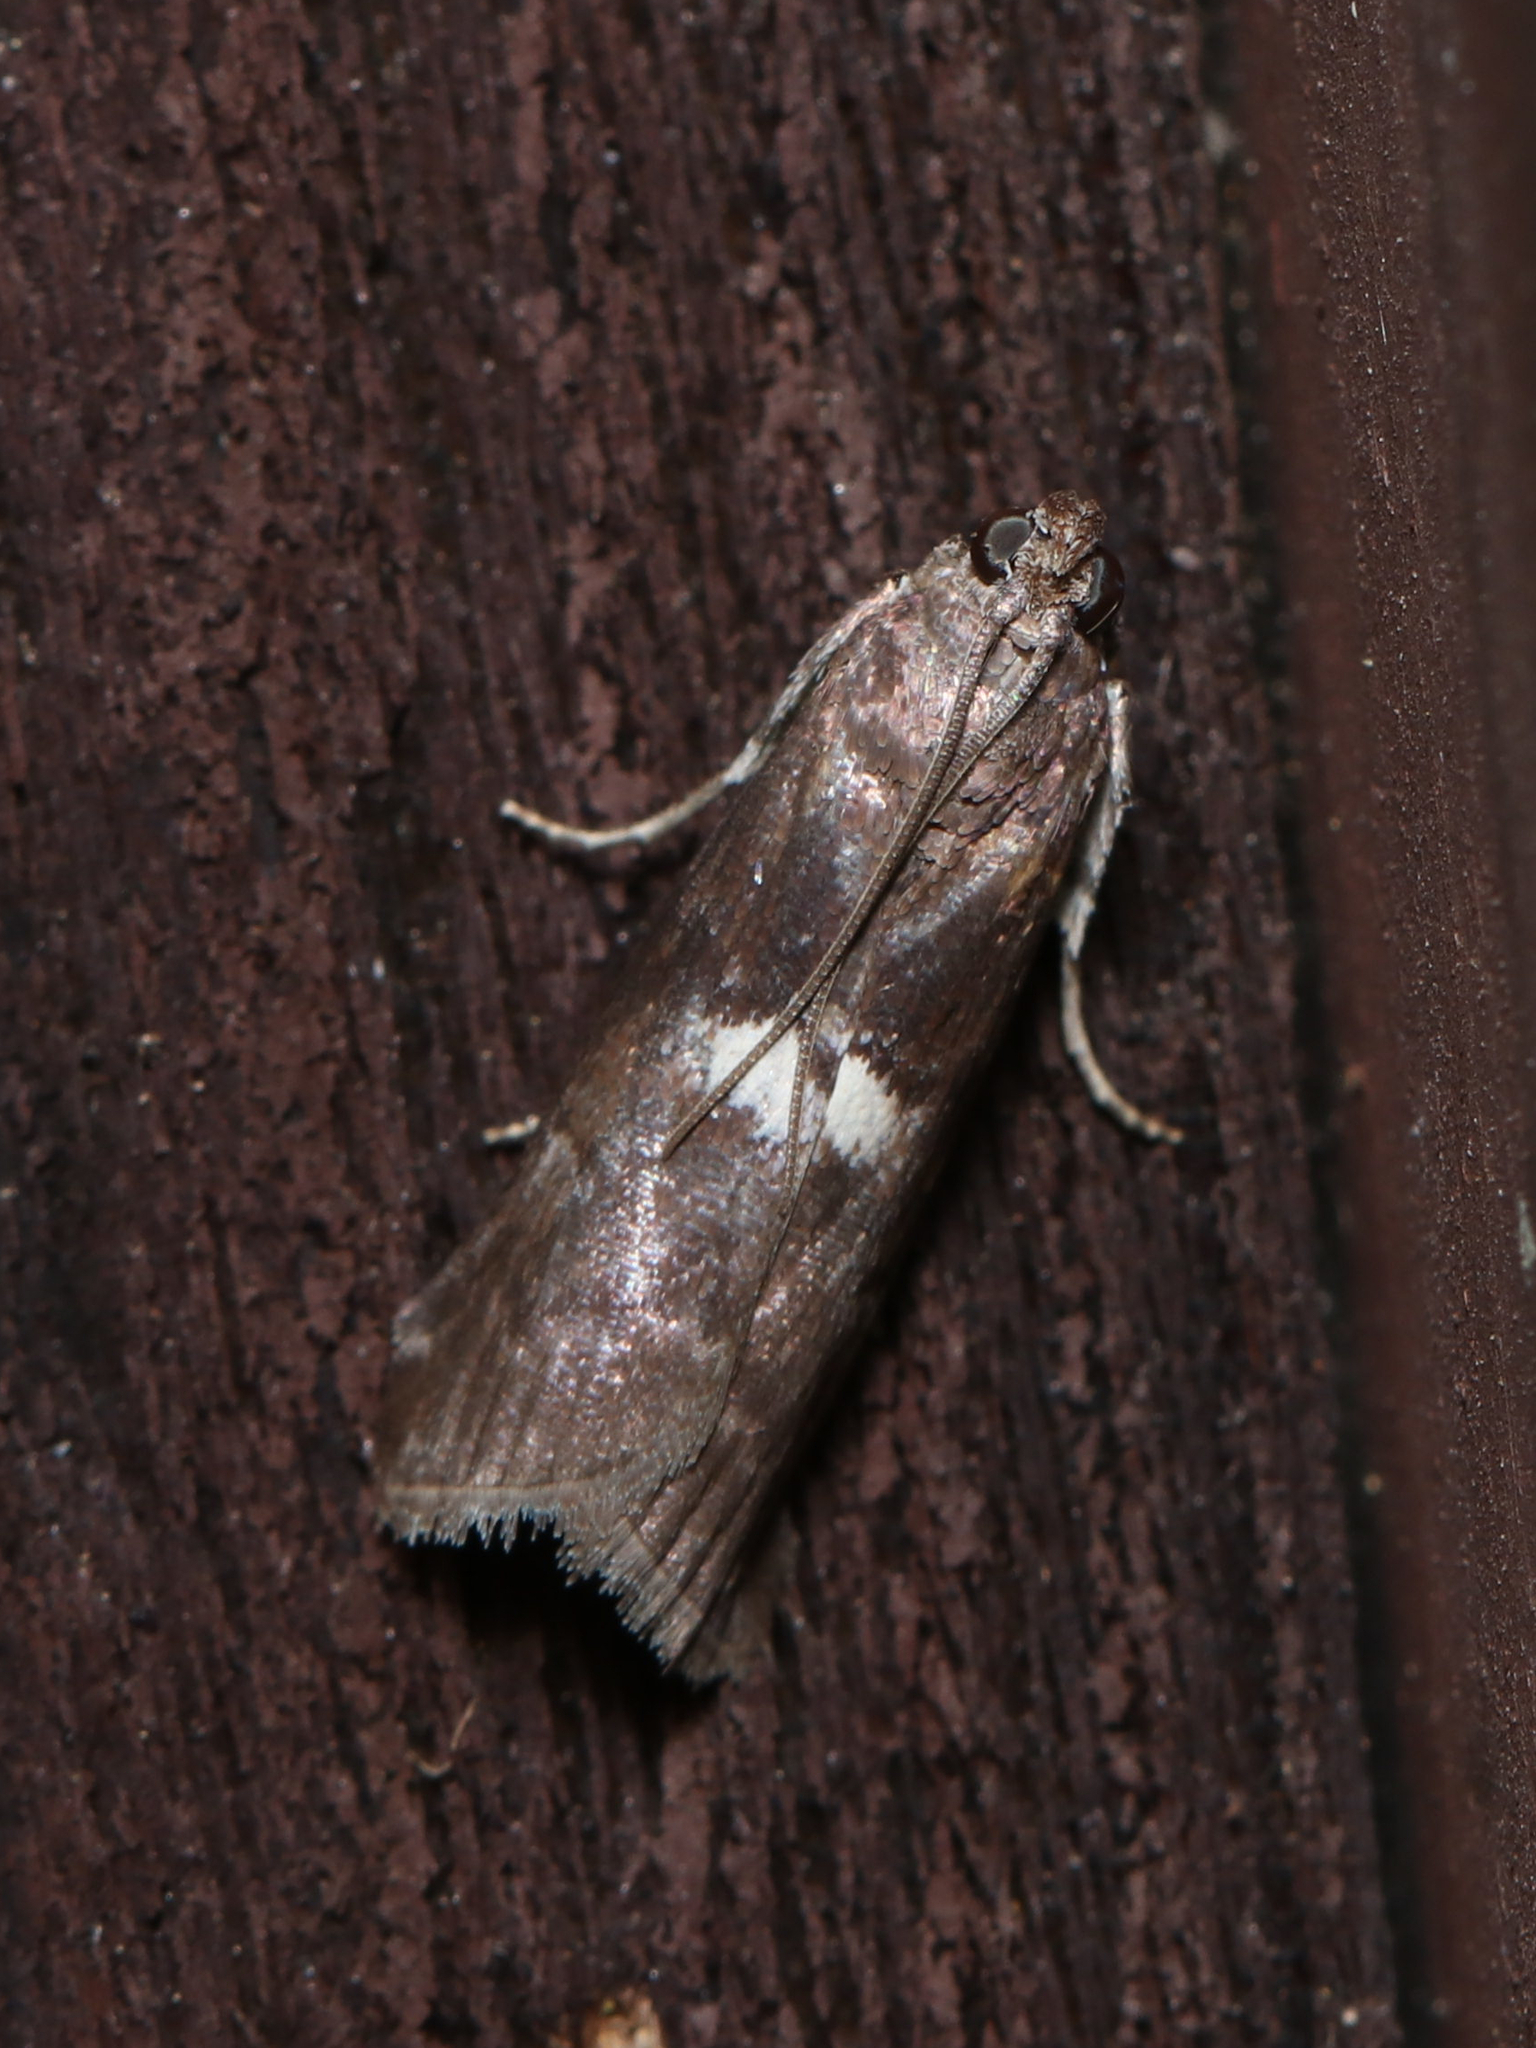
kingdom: Animalia
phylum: Arthropoda
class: Insecta
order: Lepidoptera
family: Pyralidae
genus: Salebriaria
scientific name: Salebriaria engeli
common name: Engel's salebriaria moth
